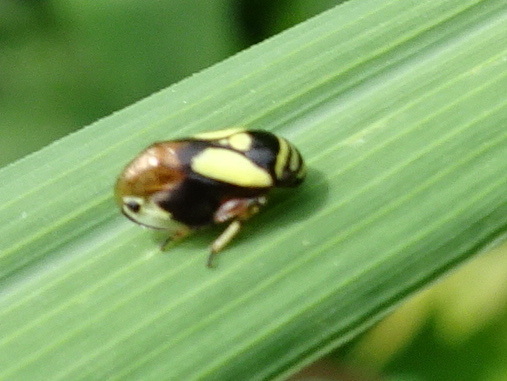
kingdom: Animalia
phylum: Arthropoda
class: Insecta
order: Hemiptera
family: Clastopteridae
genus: Clastoptera
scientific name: Clastoptera proteus
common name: Dogwood spittlebug
